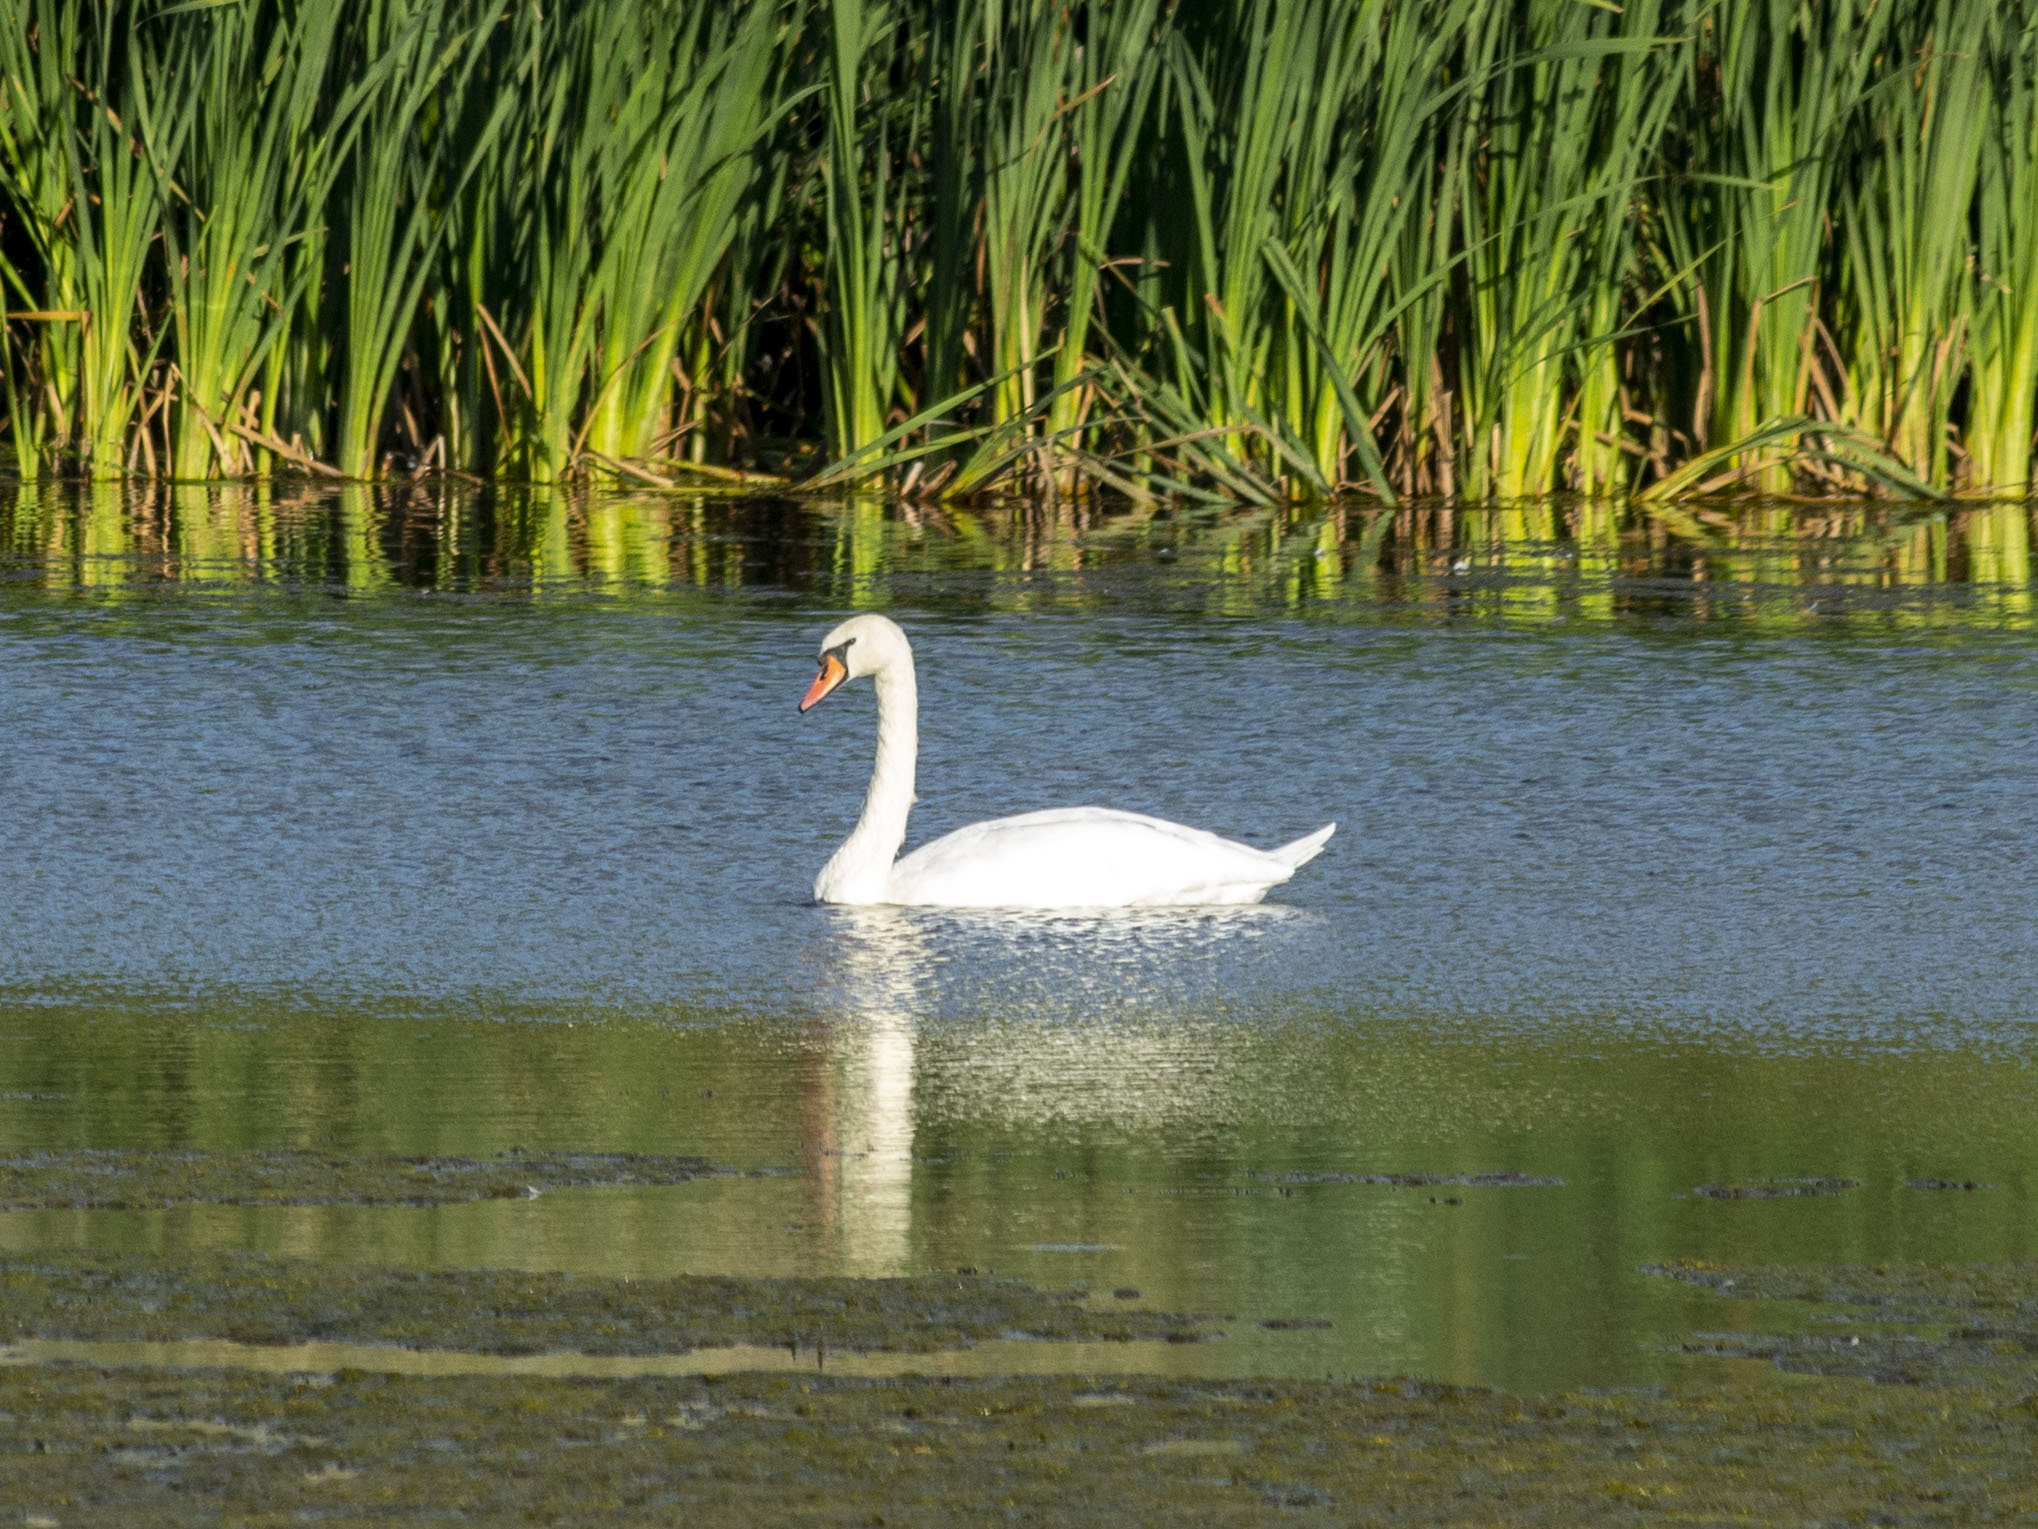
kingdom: Animalia
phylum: Chordata
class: Aves
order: Anseriformes
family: Anatidae
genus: Cygnus
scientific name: Cygnus olor
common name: Mute swan
